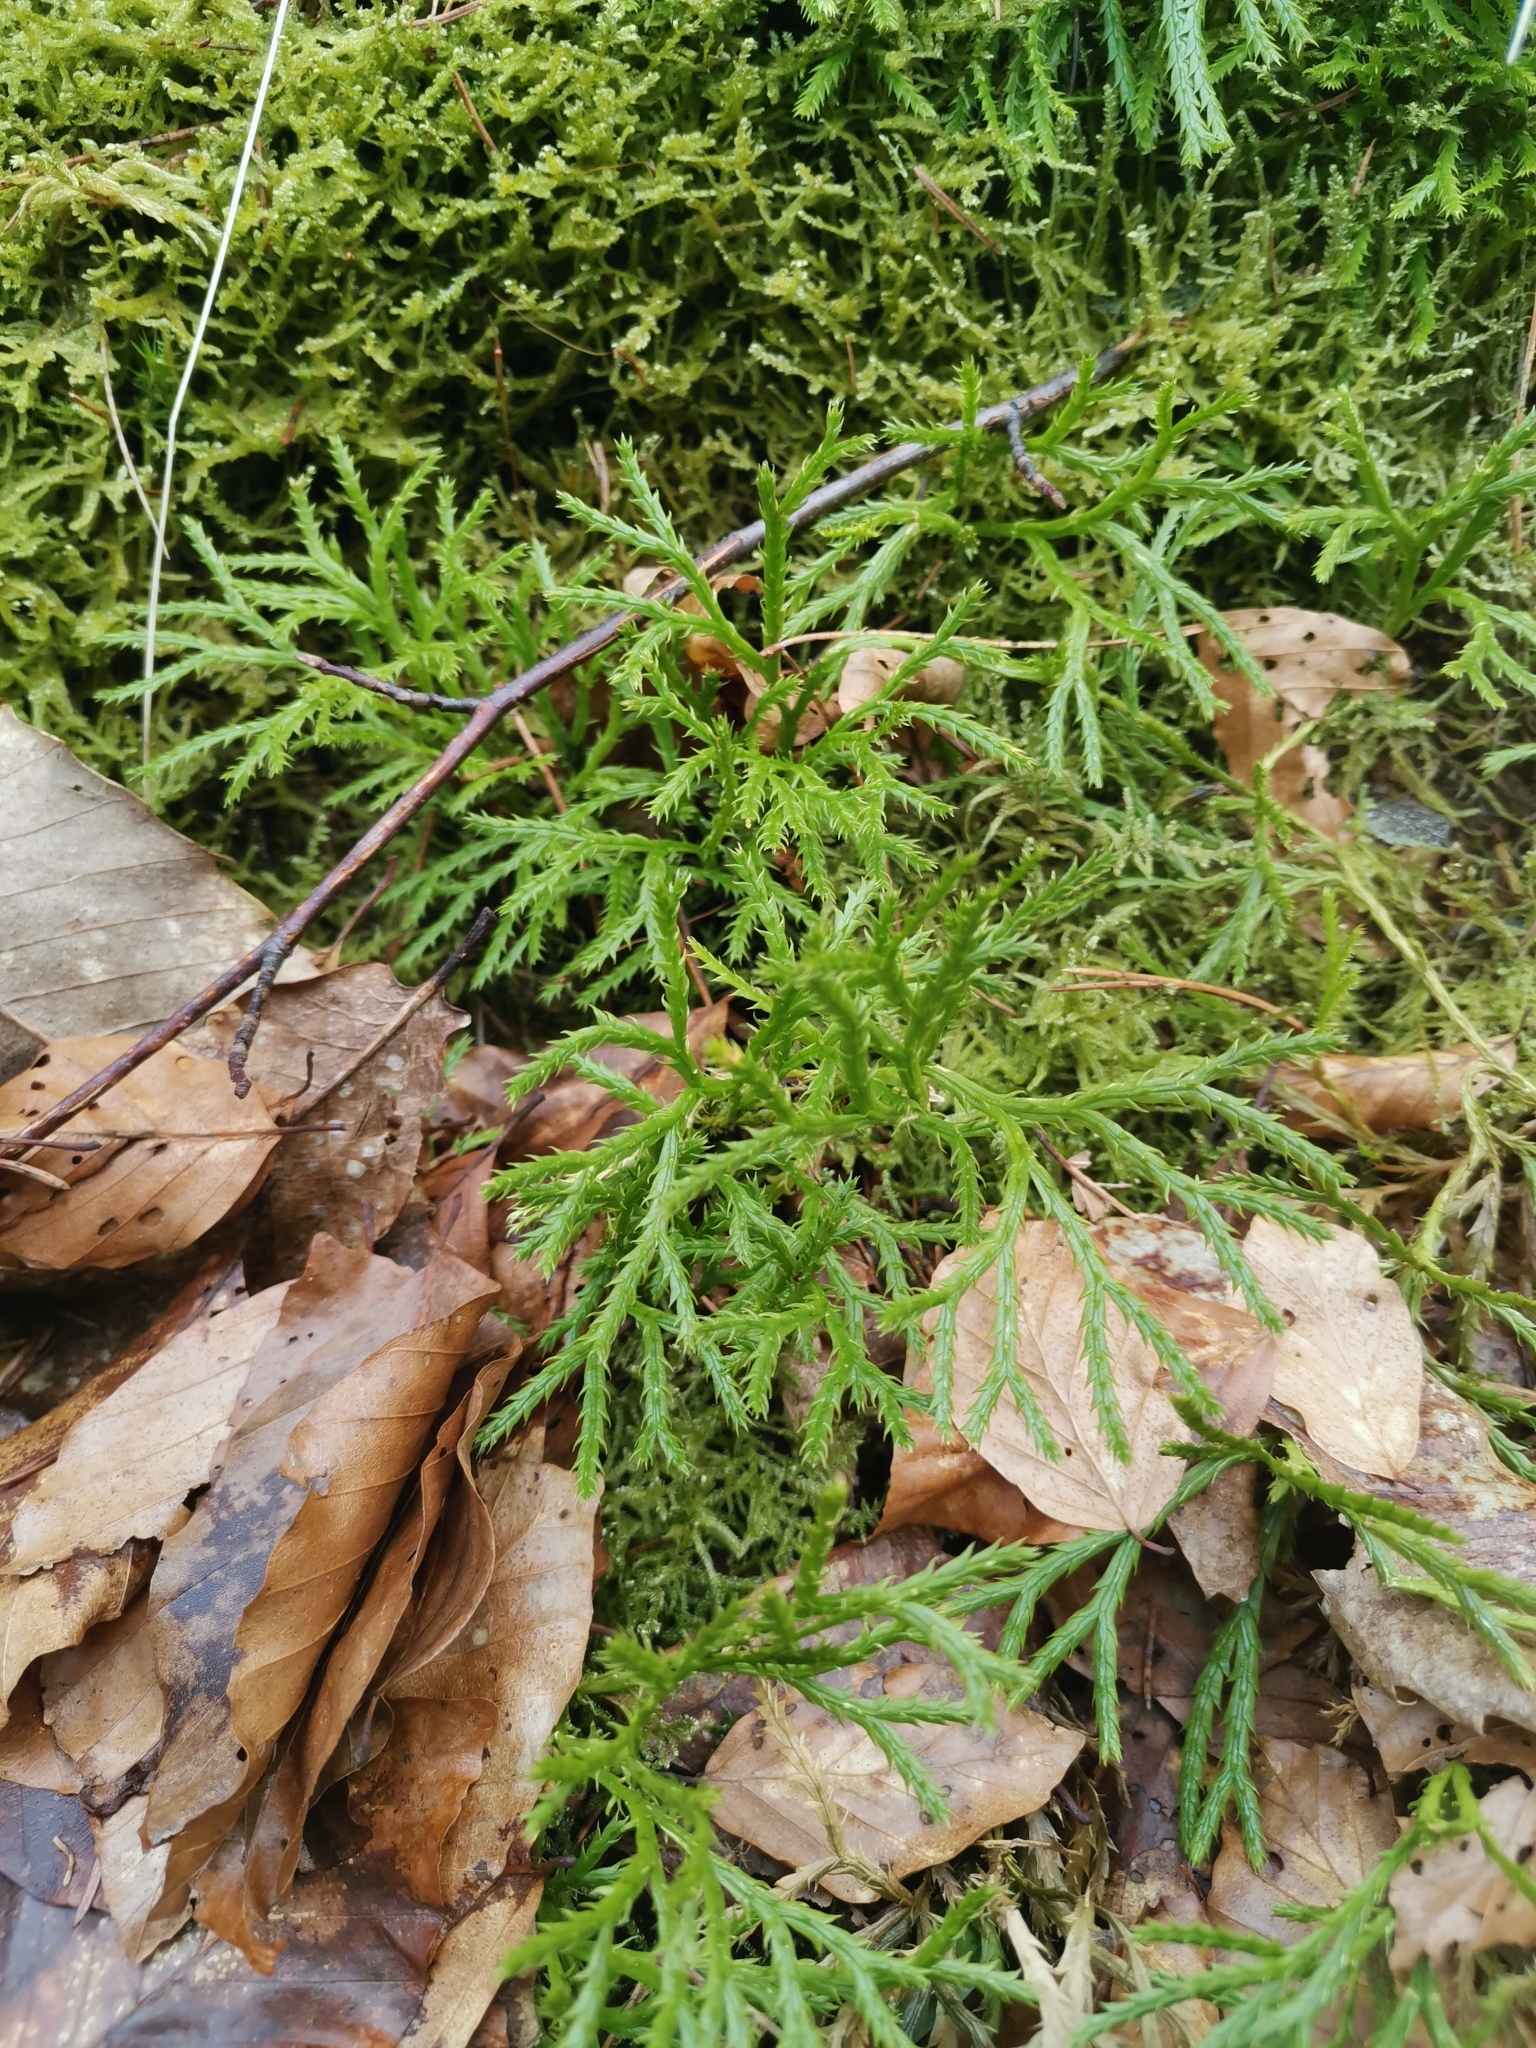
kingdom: Plantae
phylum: Tracheophyta
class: Lycopodiopsida
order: Lycopodiales
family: Lycopodiaceae
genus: Diphasiastrum
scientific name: Diphasiastrum complanatum
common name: Northern running-pine
